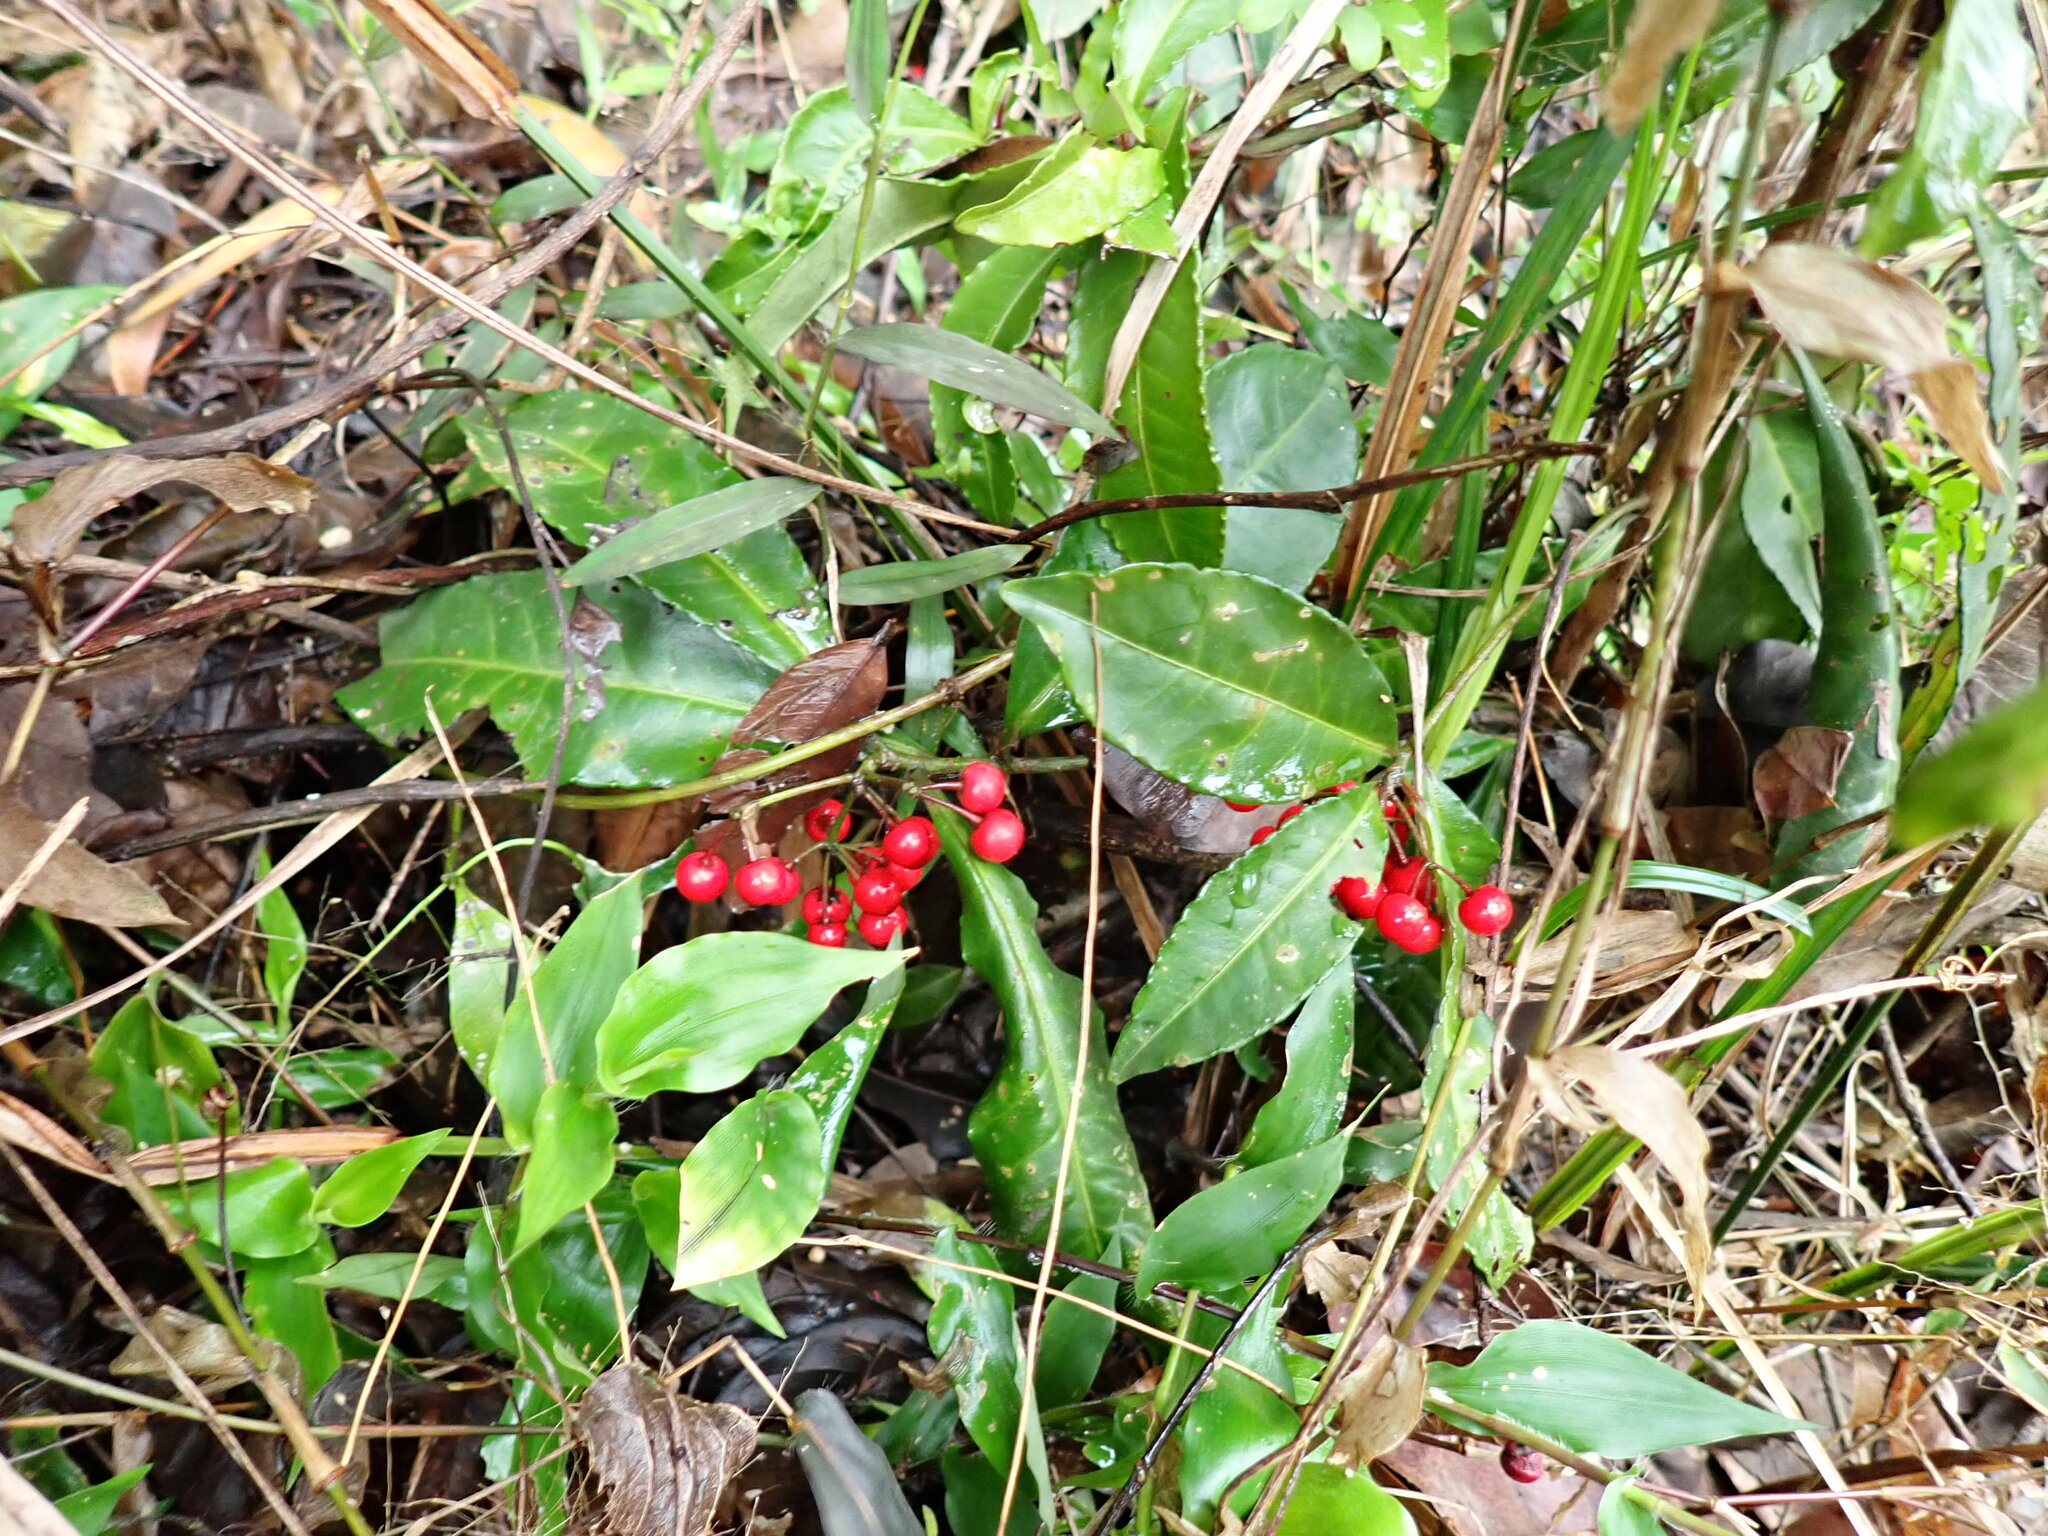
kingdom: Plantae
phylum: Tracheophyta
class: Magnoliopsida
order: Ericales
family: Primulaceae
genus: Ardisia
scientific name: Ardisia crenata
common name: Hen's eyes
